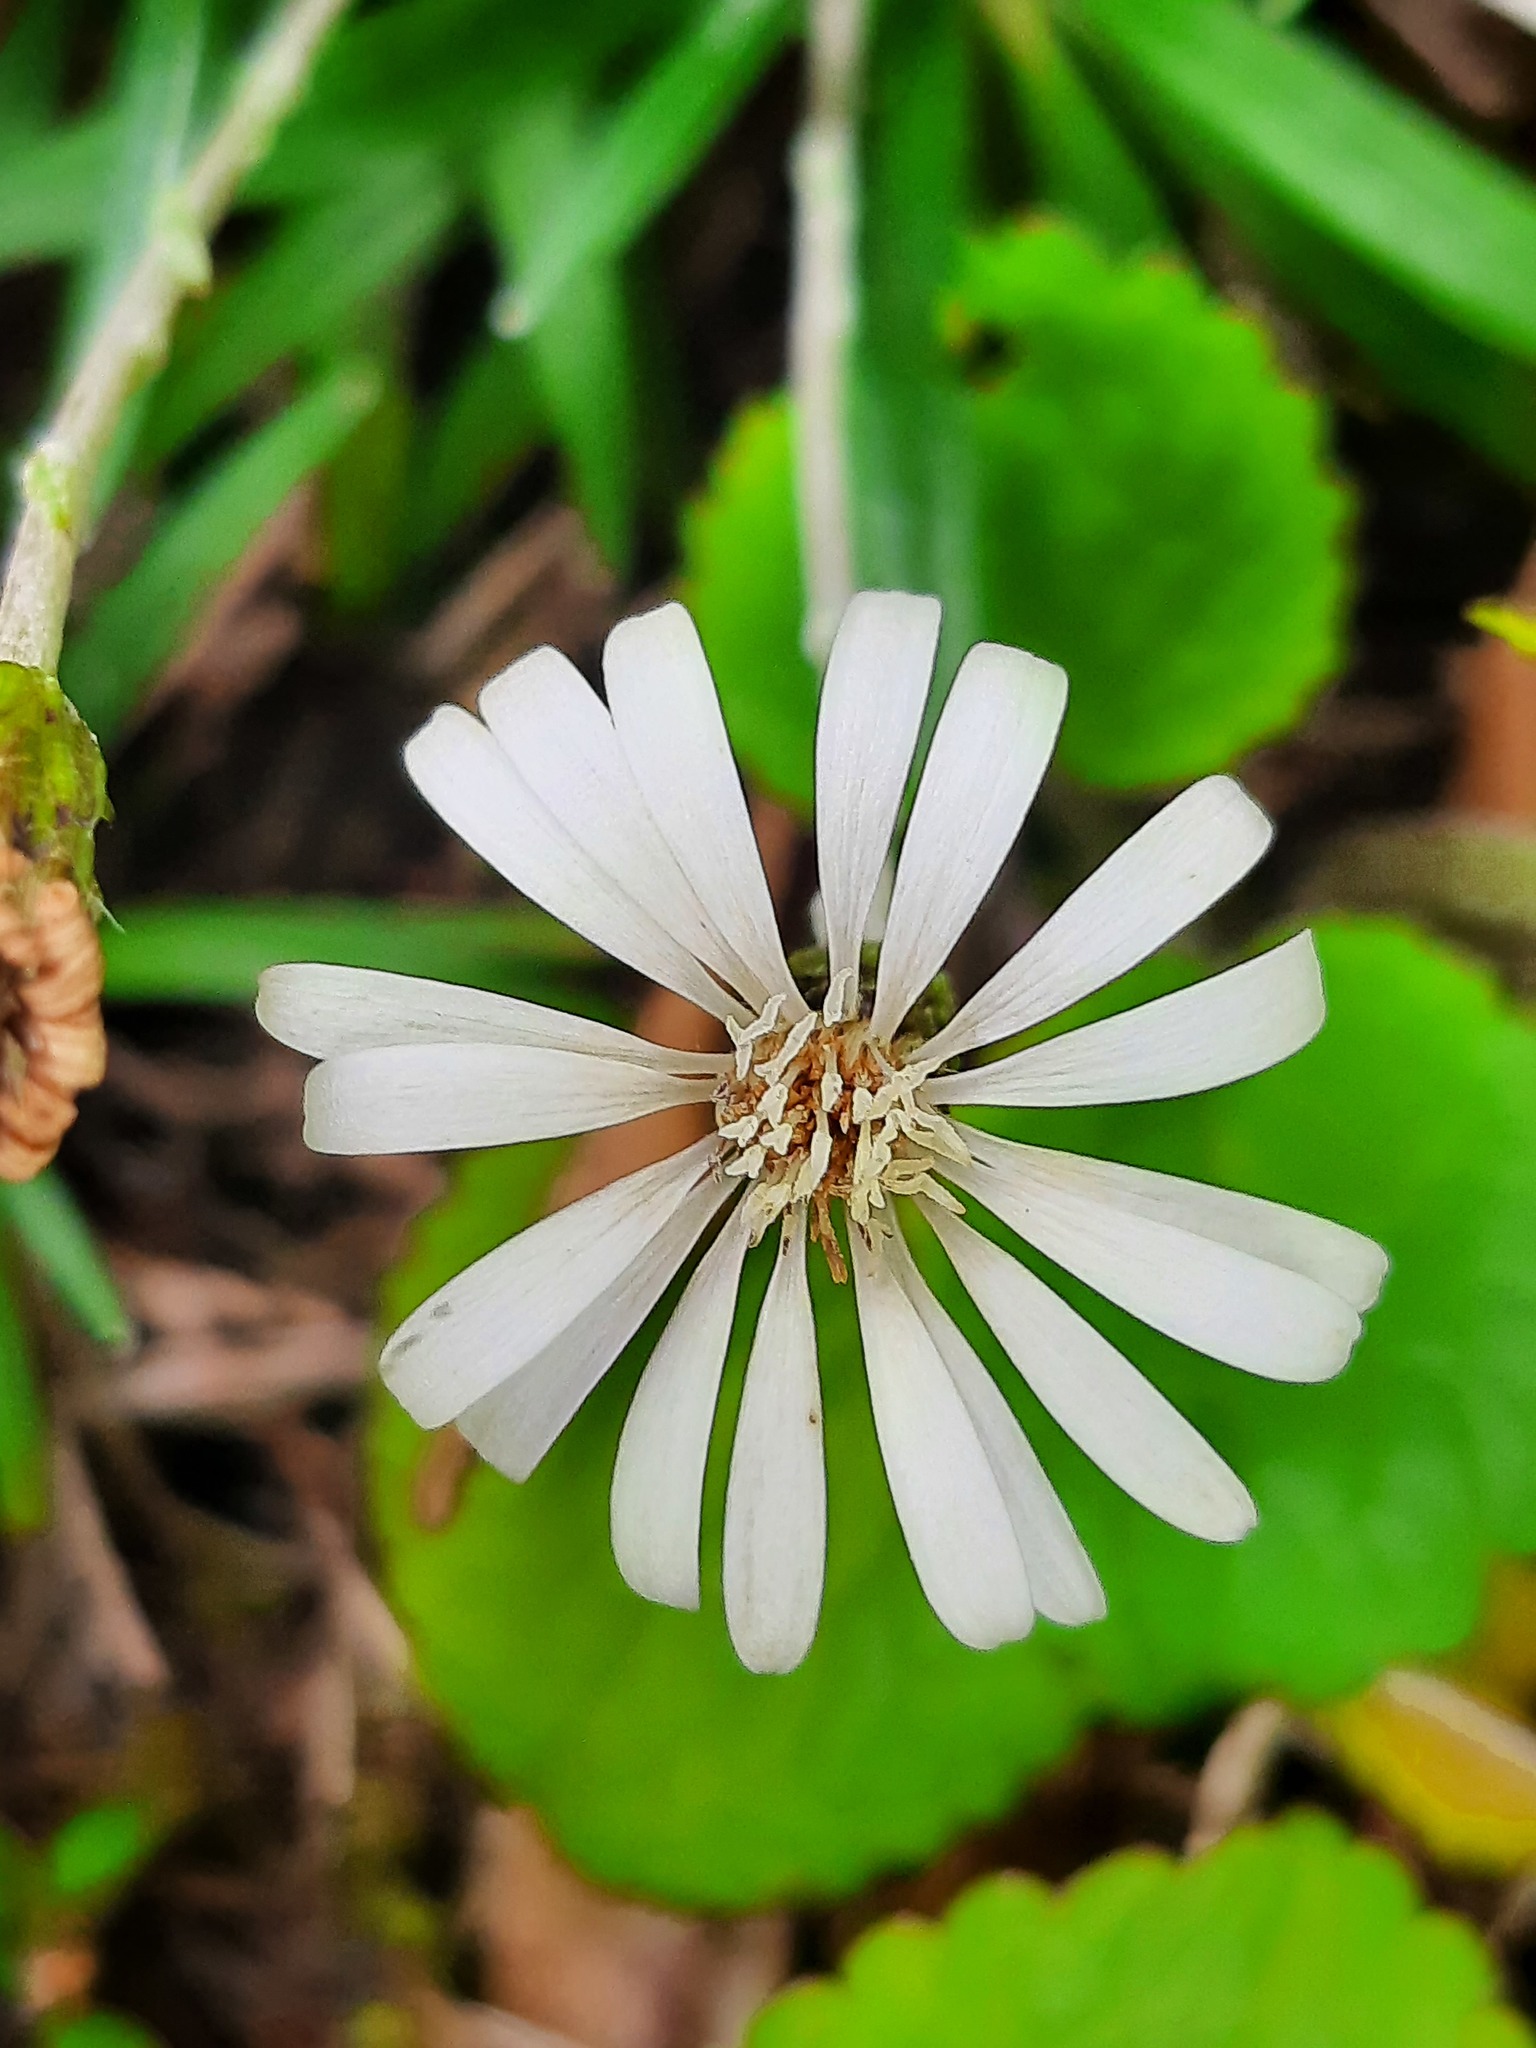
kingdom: Plantae
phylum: Tracheophyta
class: Magnoliopsida
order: Asterales
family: Asteraceae
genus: Celmisia
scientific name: Celmisia major
